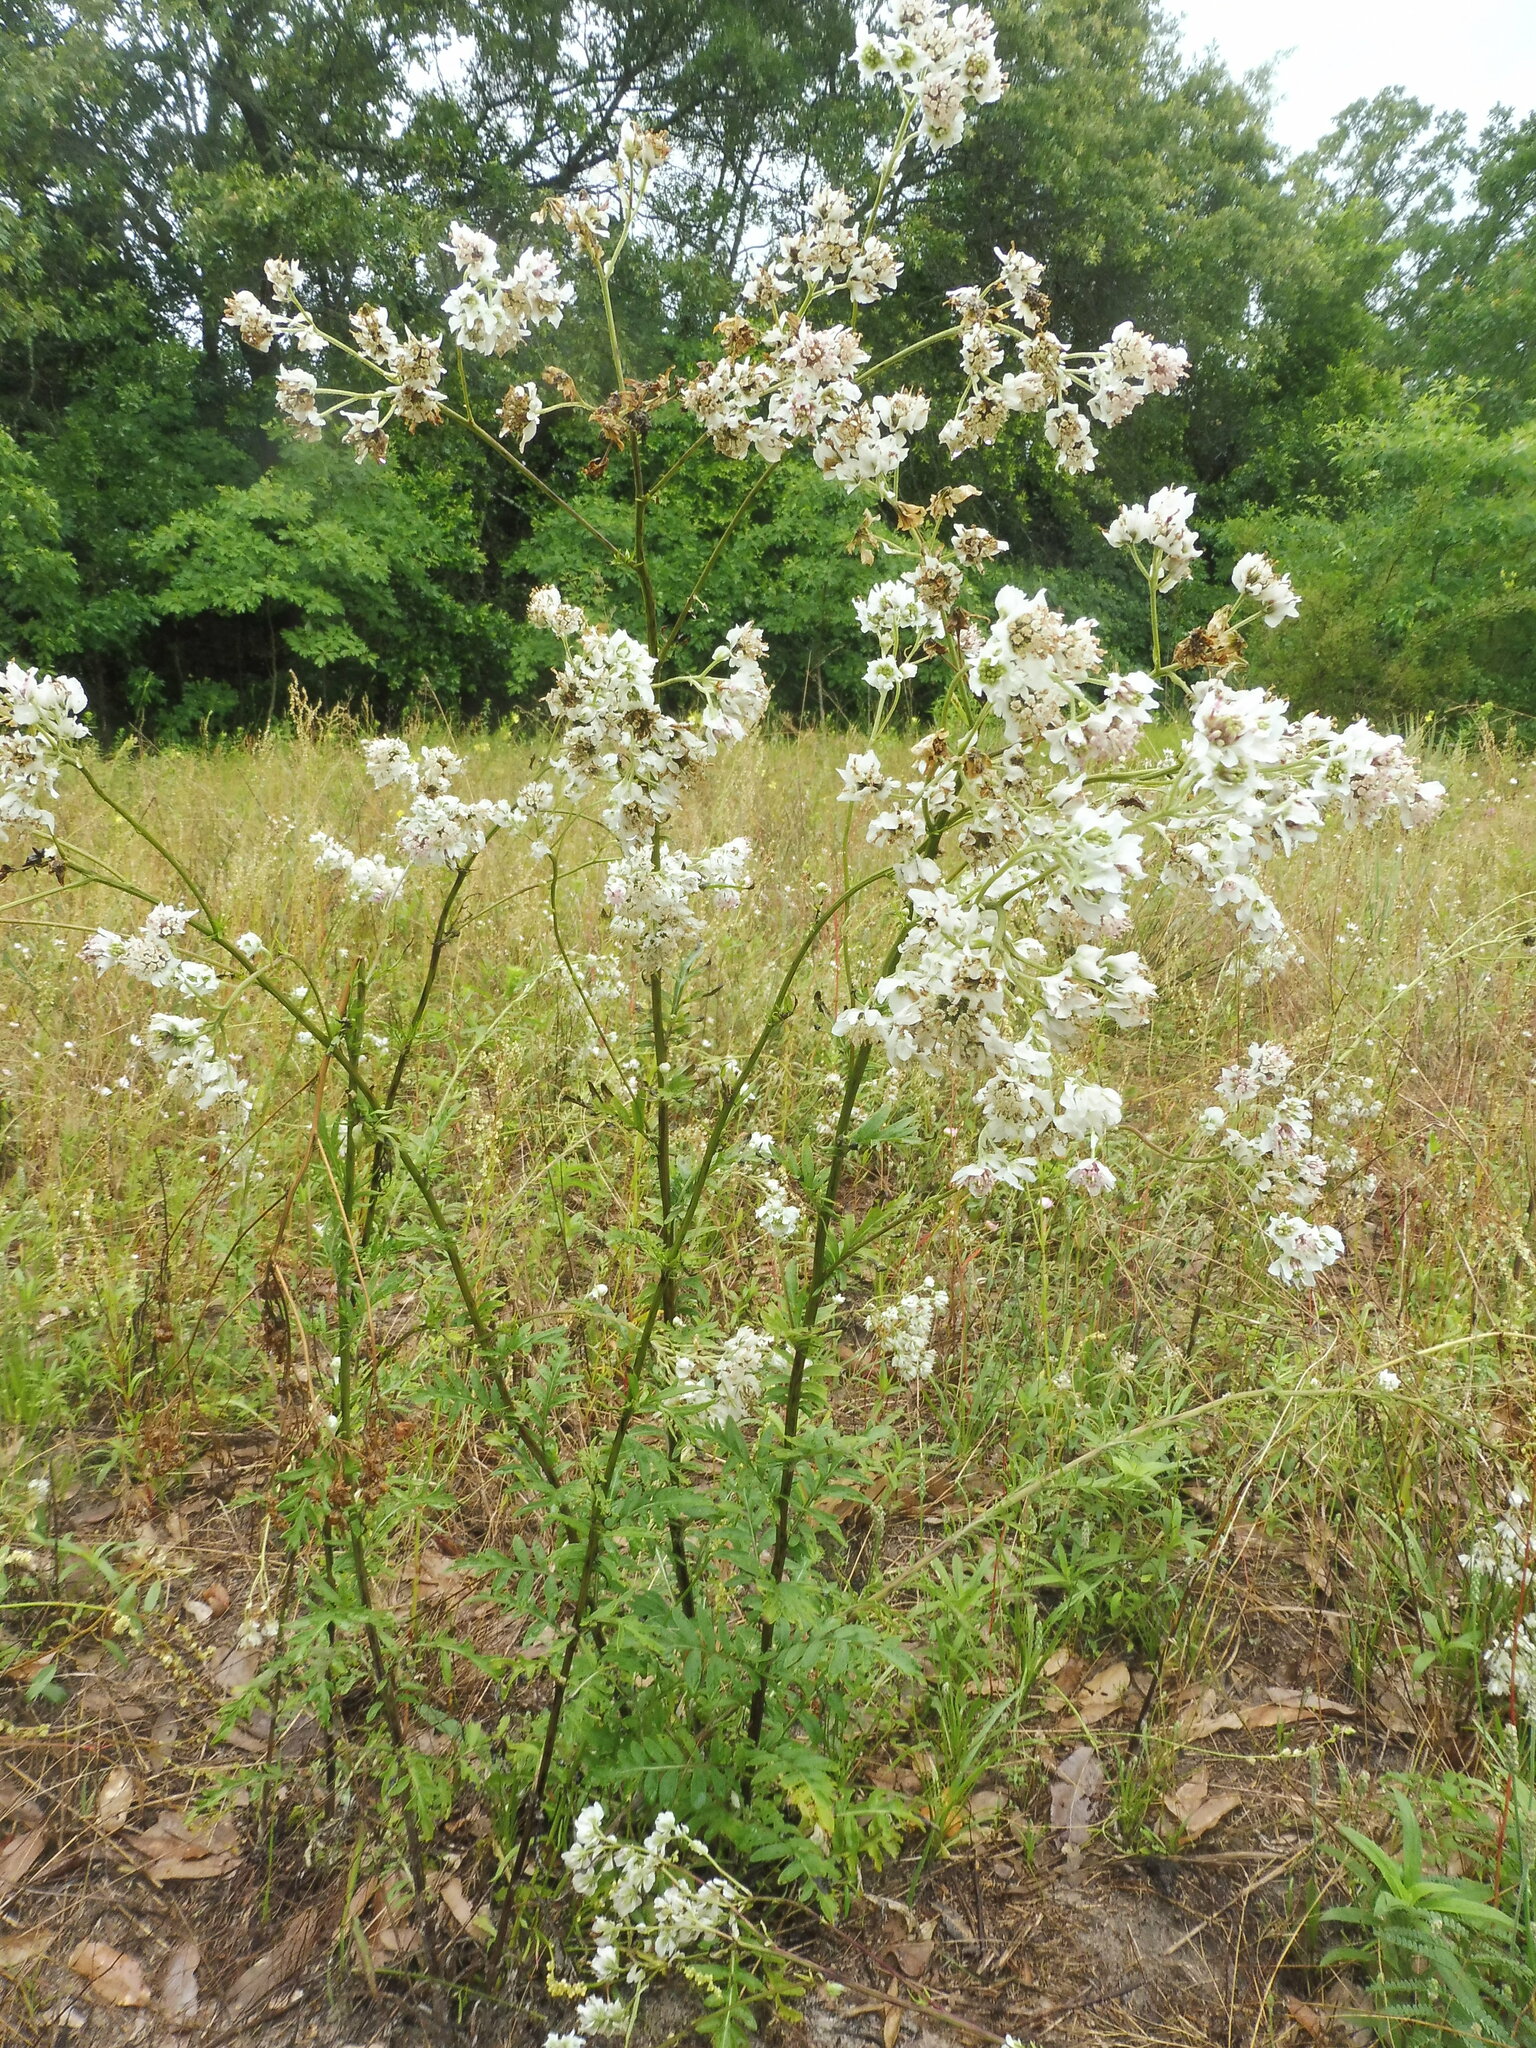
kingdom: Plantae
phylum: Tracheophyta
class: Magnoliopsida
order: Asterales
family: Asteraceae
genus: Hymenopappus
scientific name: Hymenopappus artemisiifolius
